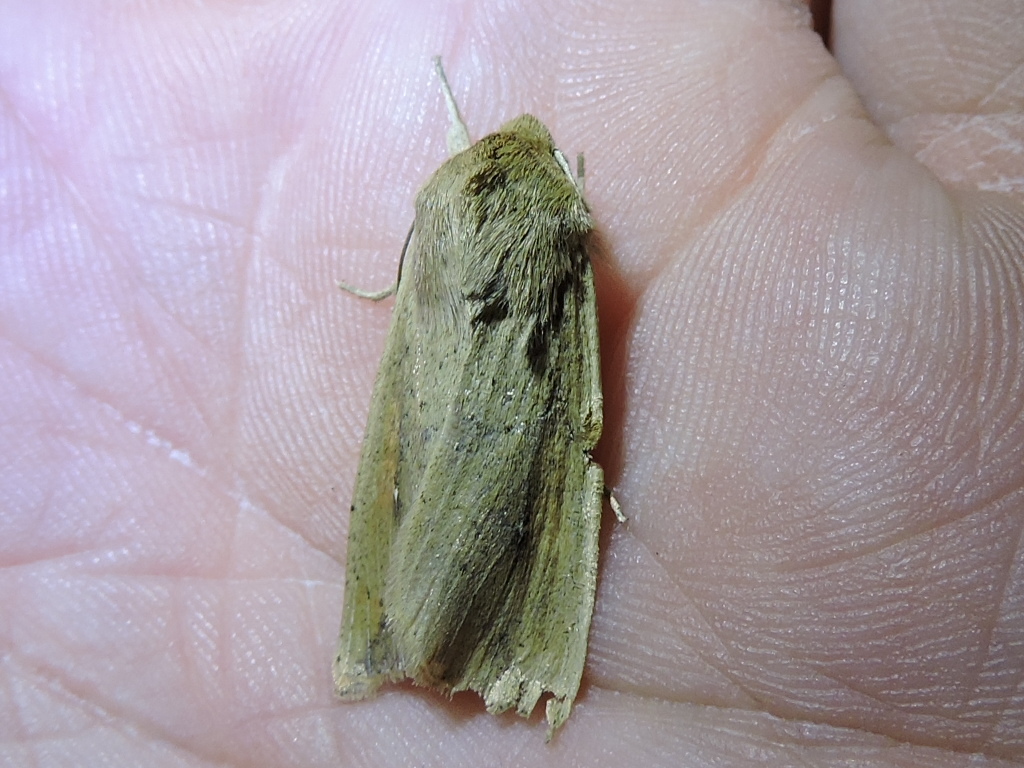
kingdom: Animalia
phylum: Arthropoda
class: Insecta
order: Lepidoptera
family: Noctuidae
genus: Mythimna
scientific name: Mythimna unipuncta
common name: White-speck
